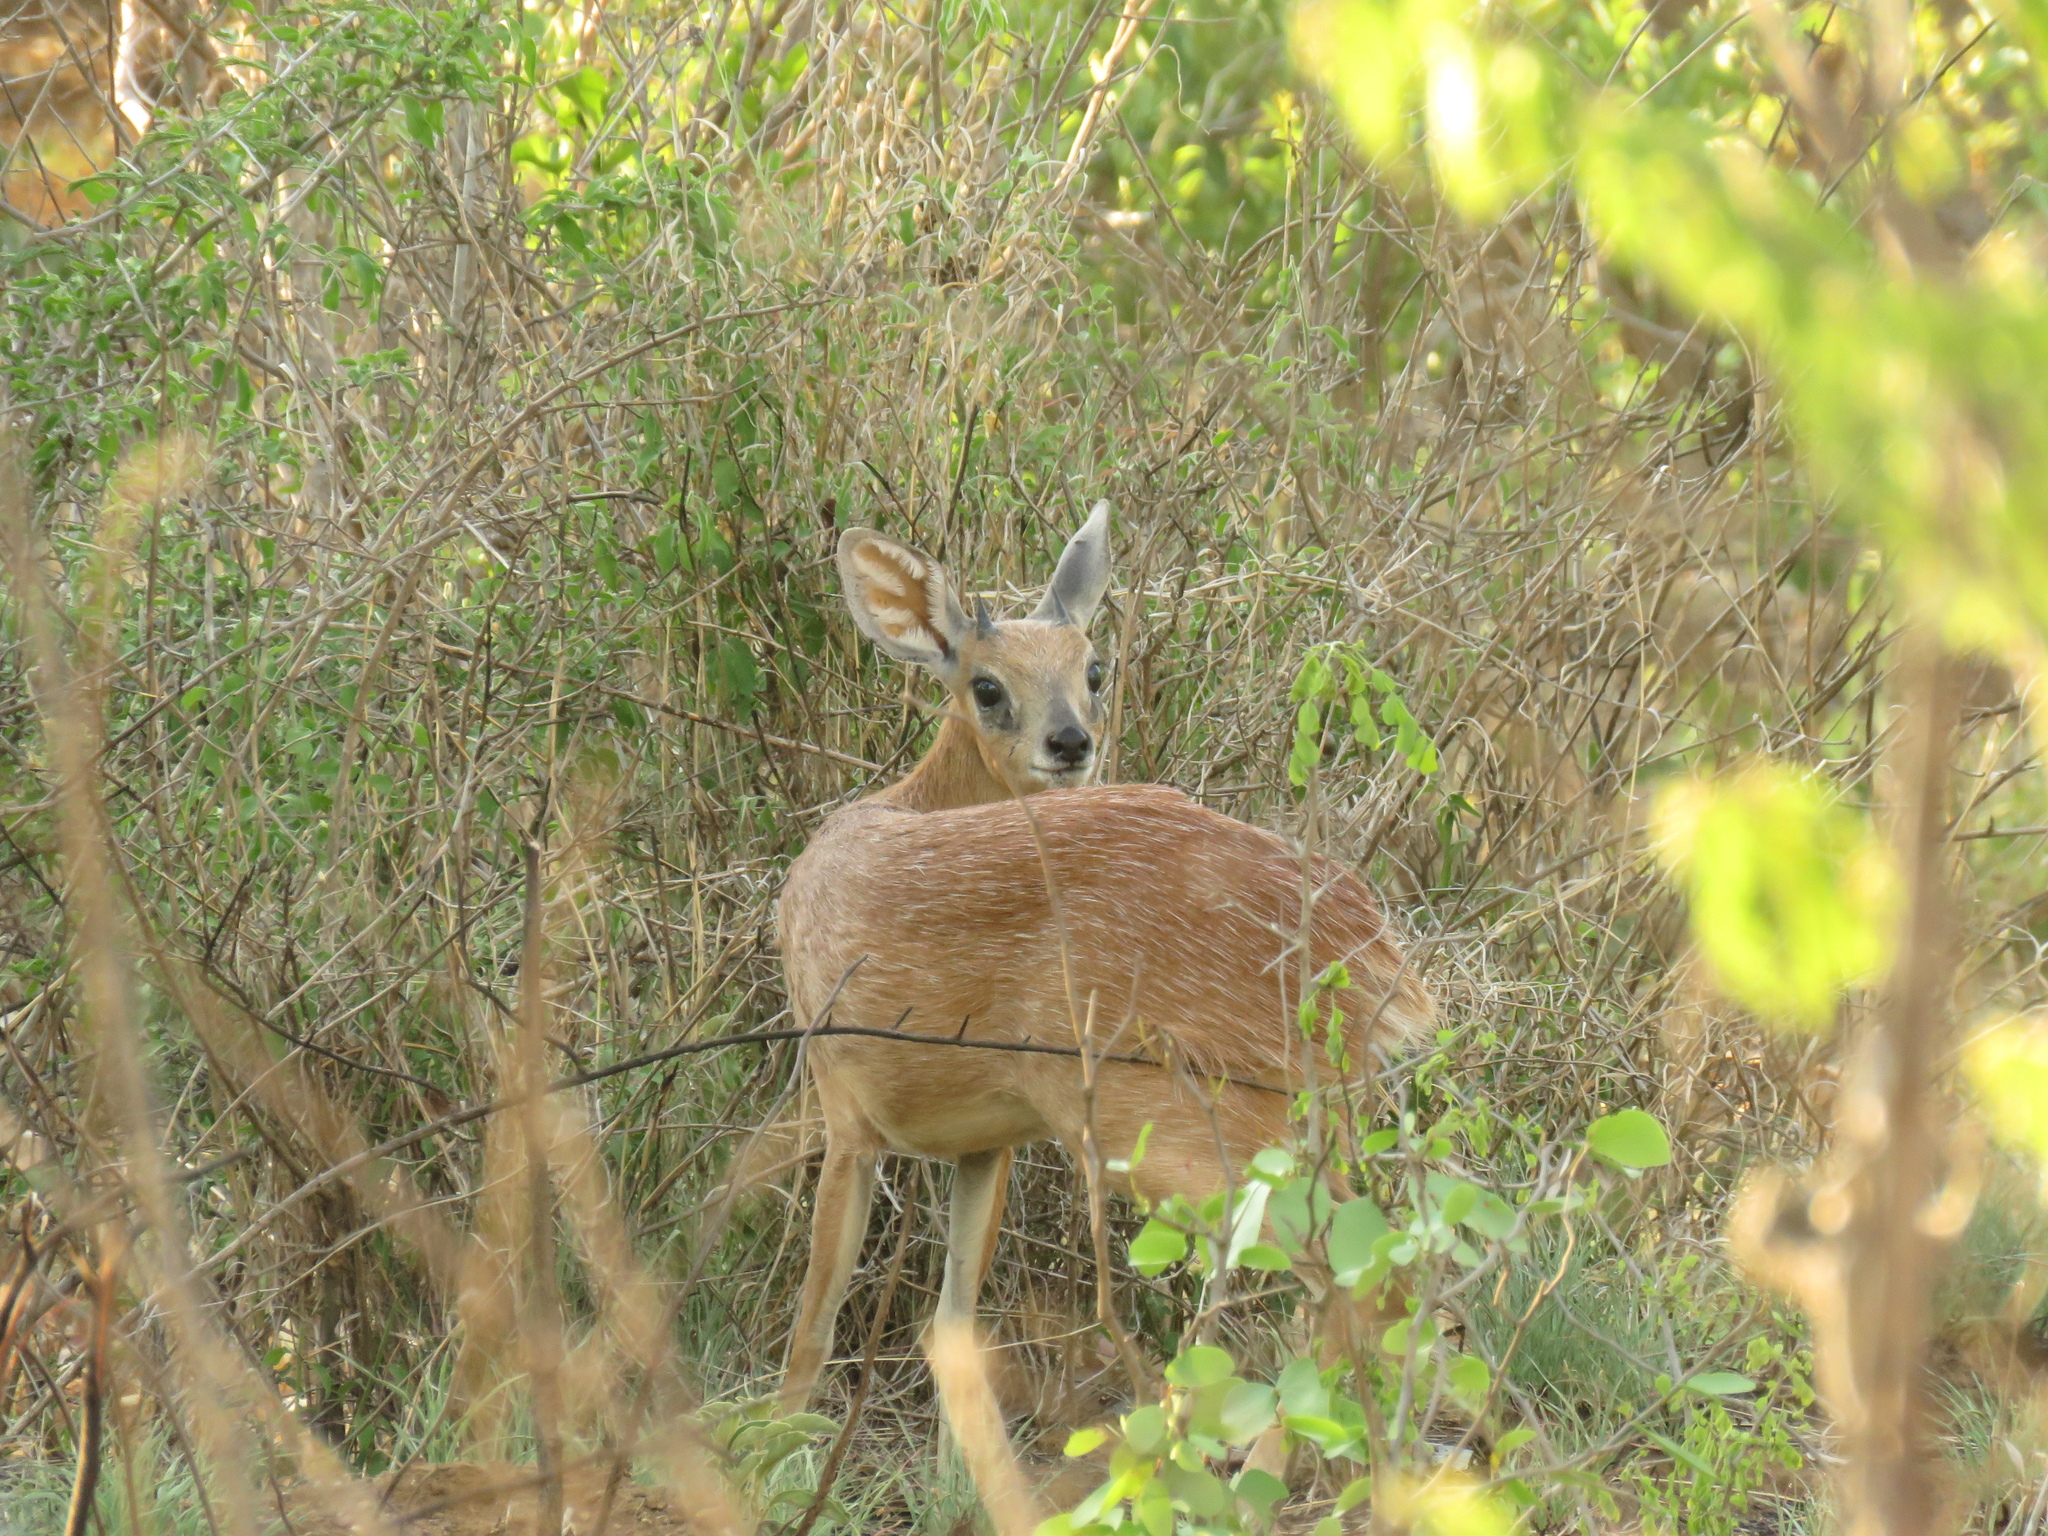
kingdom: Animalia
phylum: Chordata
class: Mammalia
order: Artiodactyla
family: Bovidae
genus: Raphicerus
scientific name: Raphicerus sharpei
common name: Sharpe's grysbok
